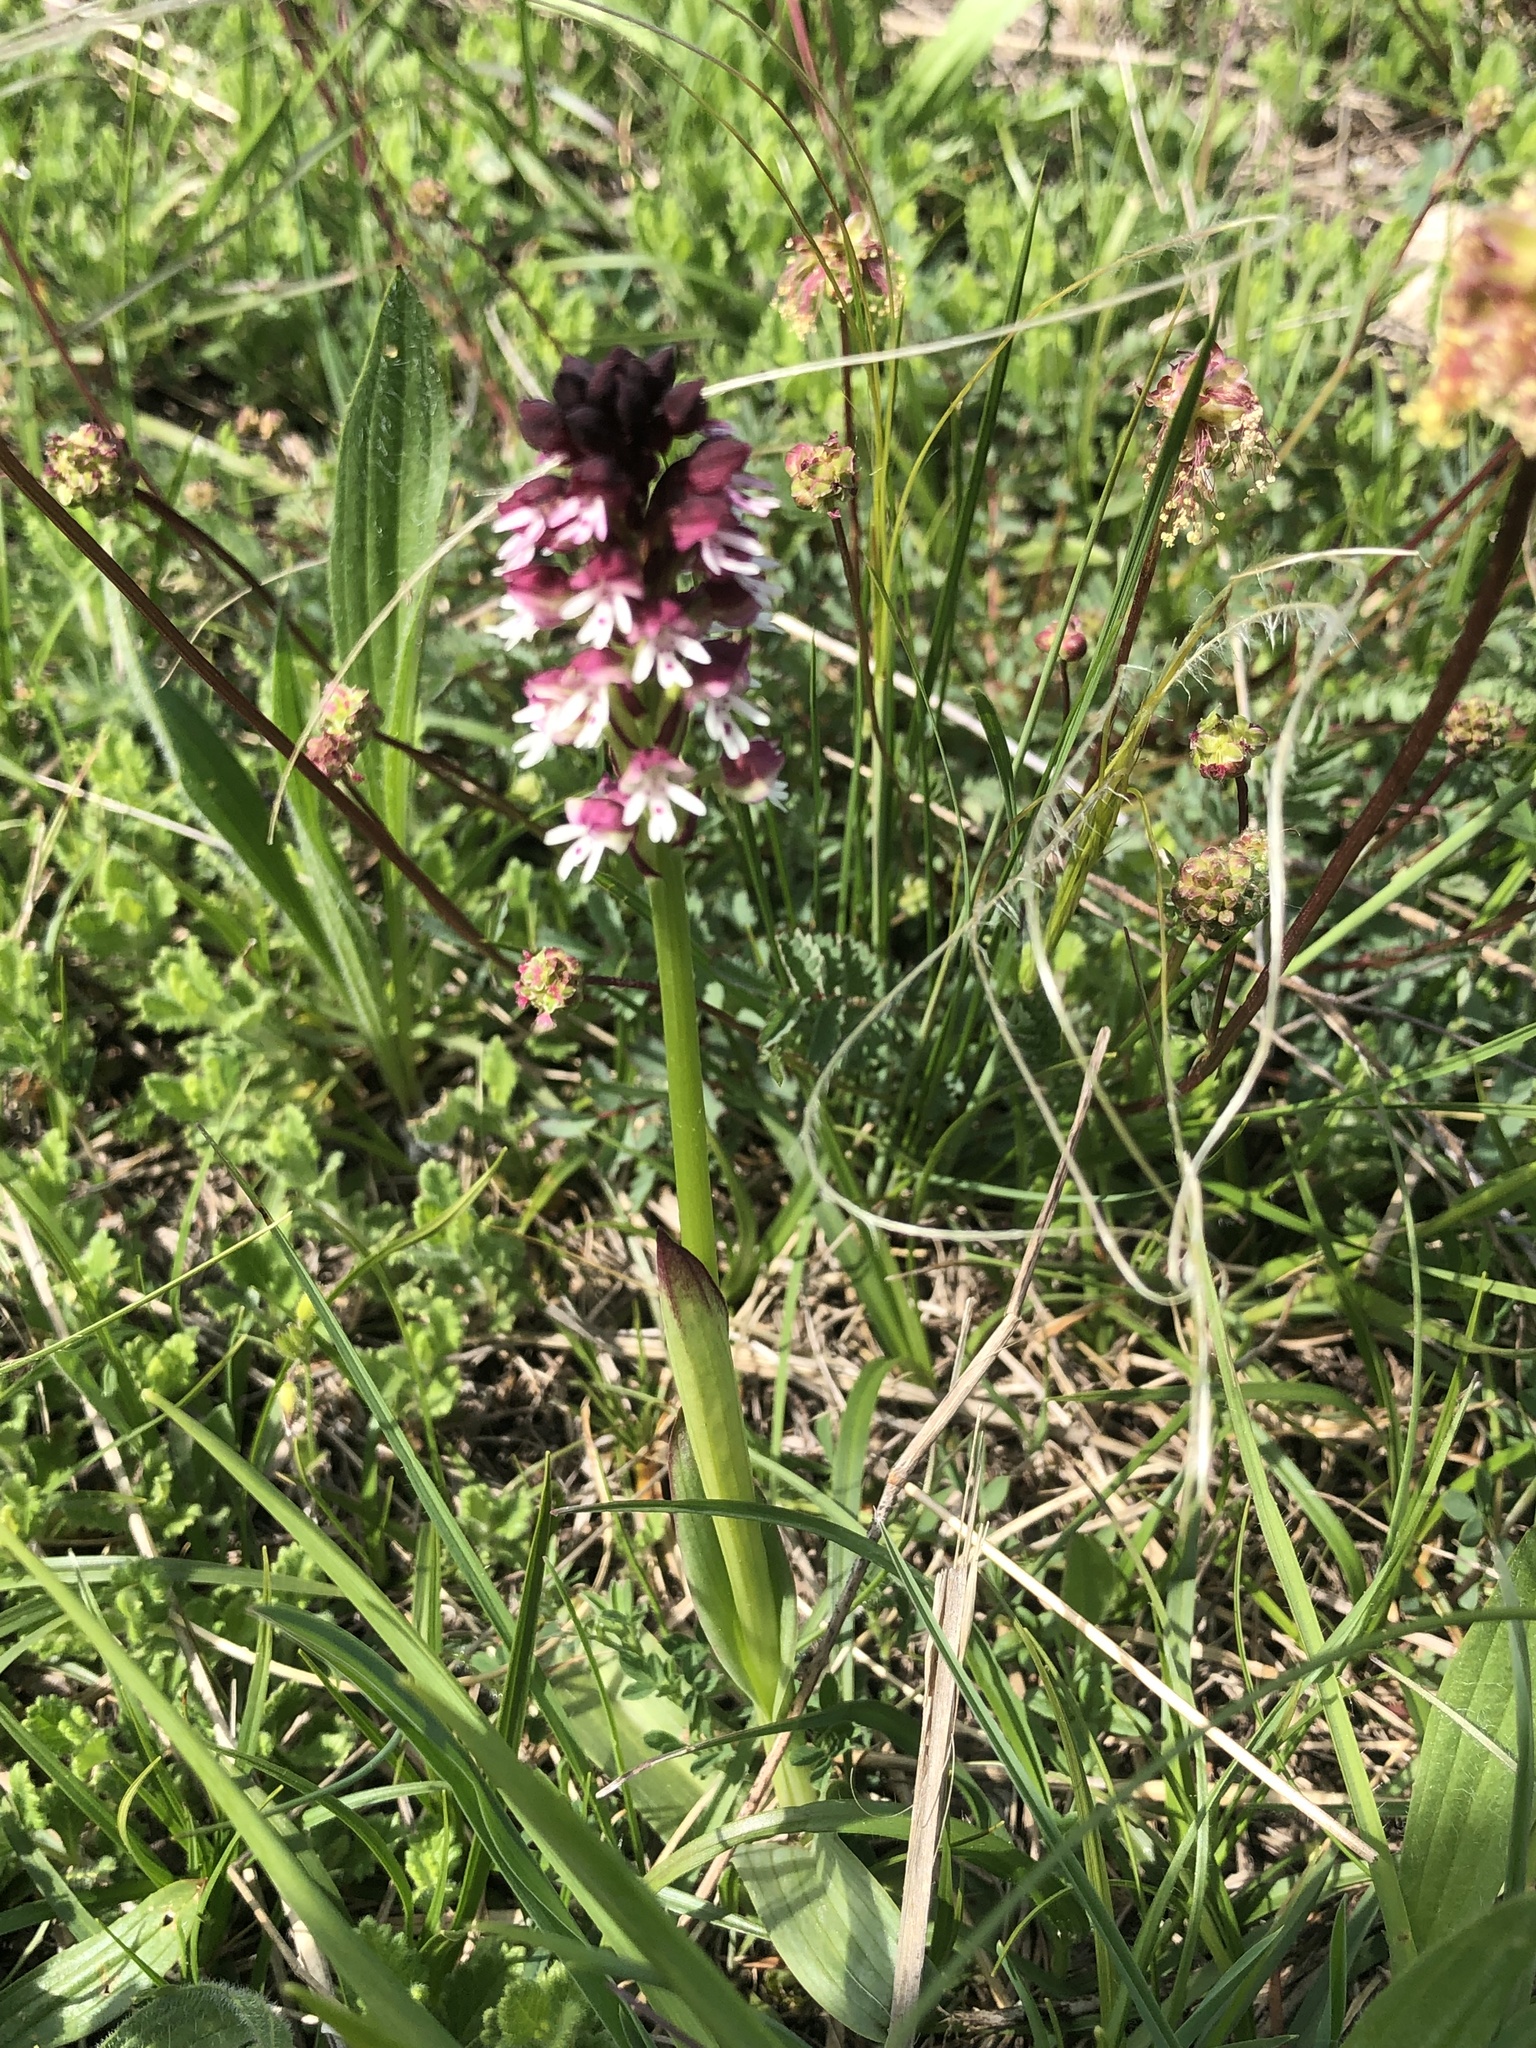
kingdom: Plantae
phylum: Tracheophyta
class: Liliopsida
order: Asparagales
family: Orchidaceae
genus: Neotinea
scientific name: Neotinea ustulata
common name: Burnt orchid
